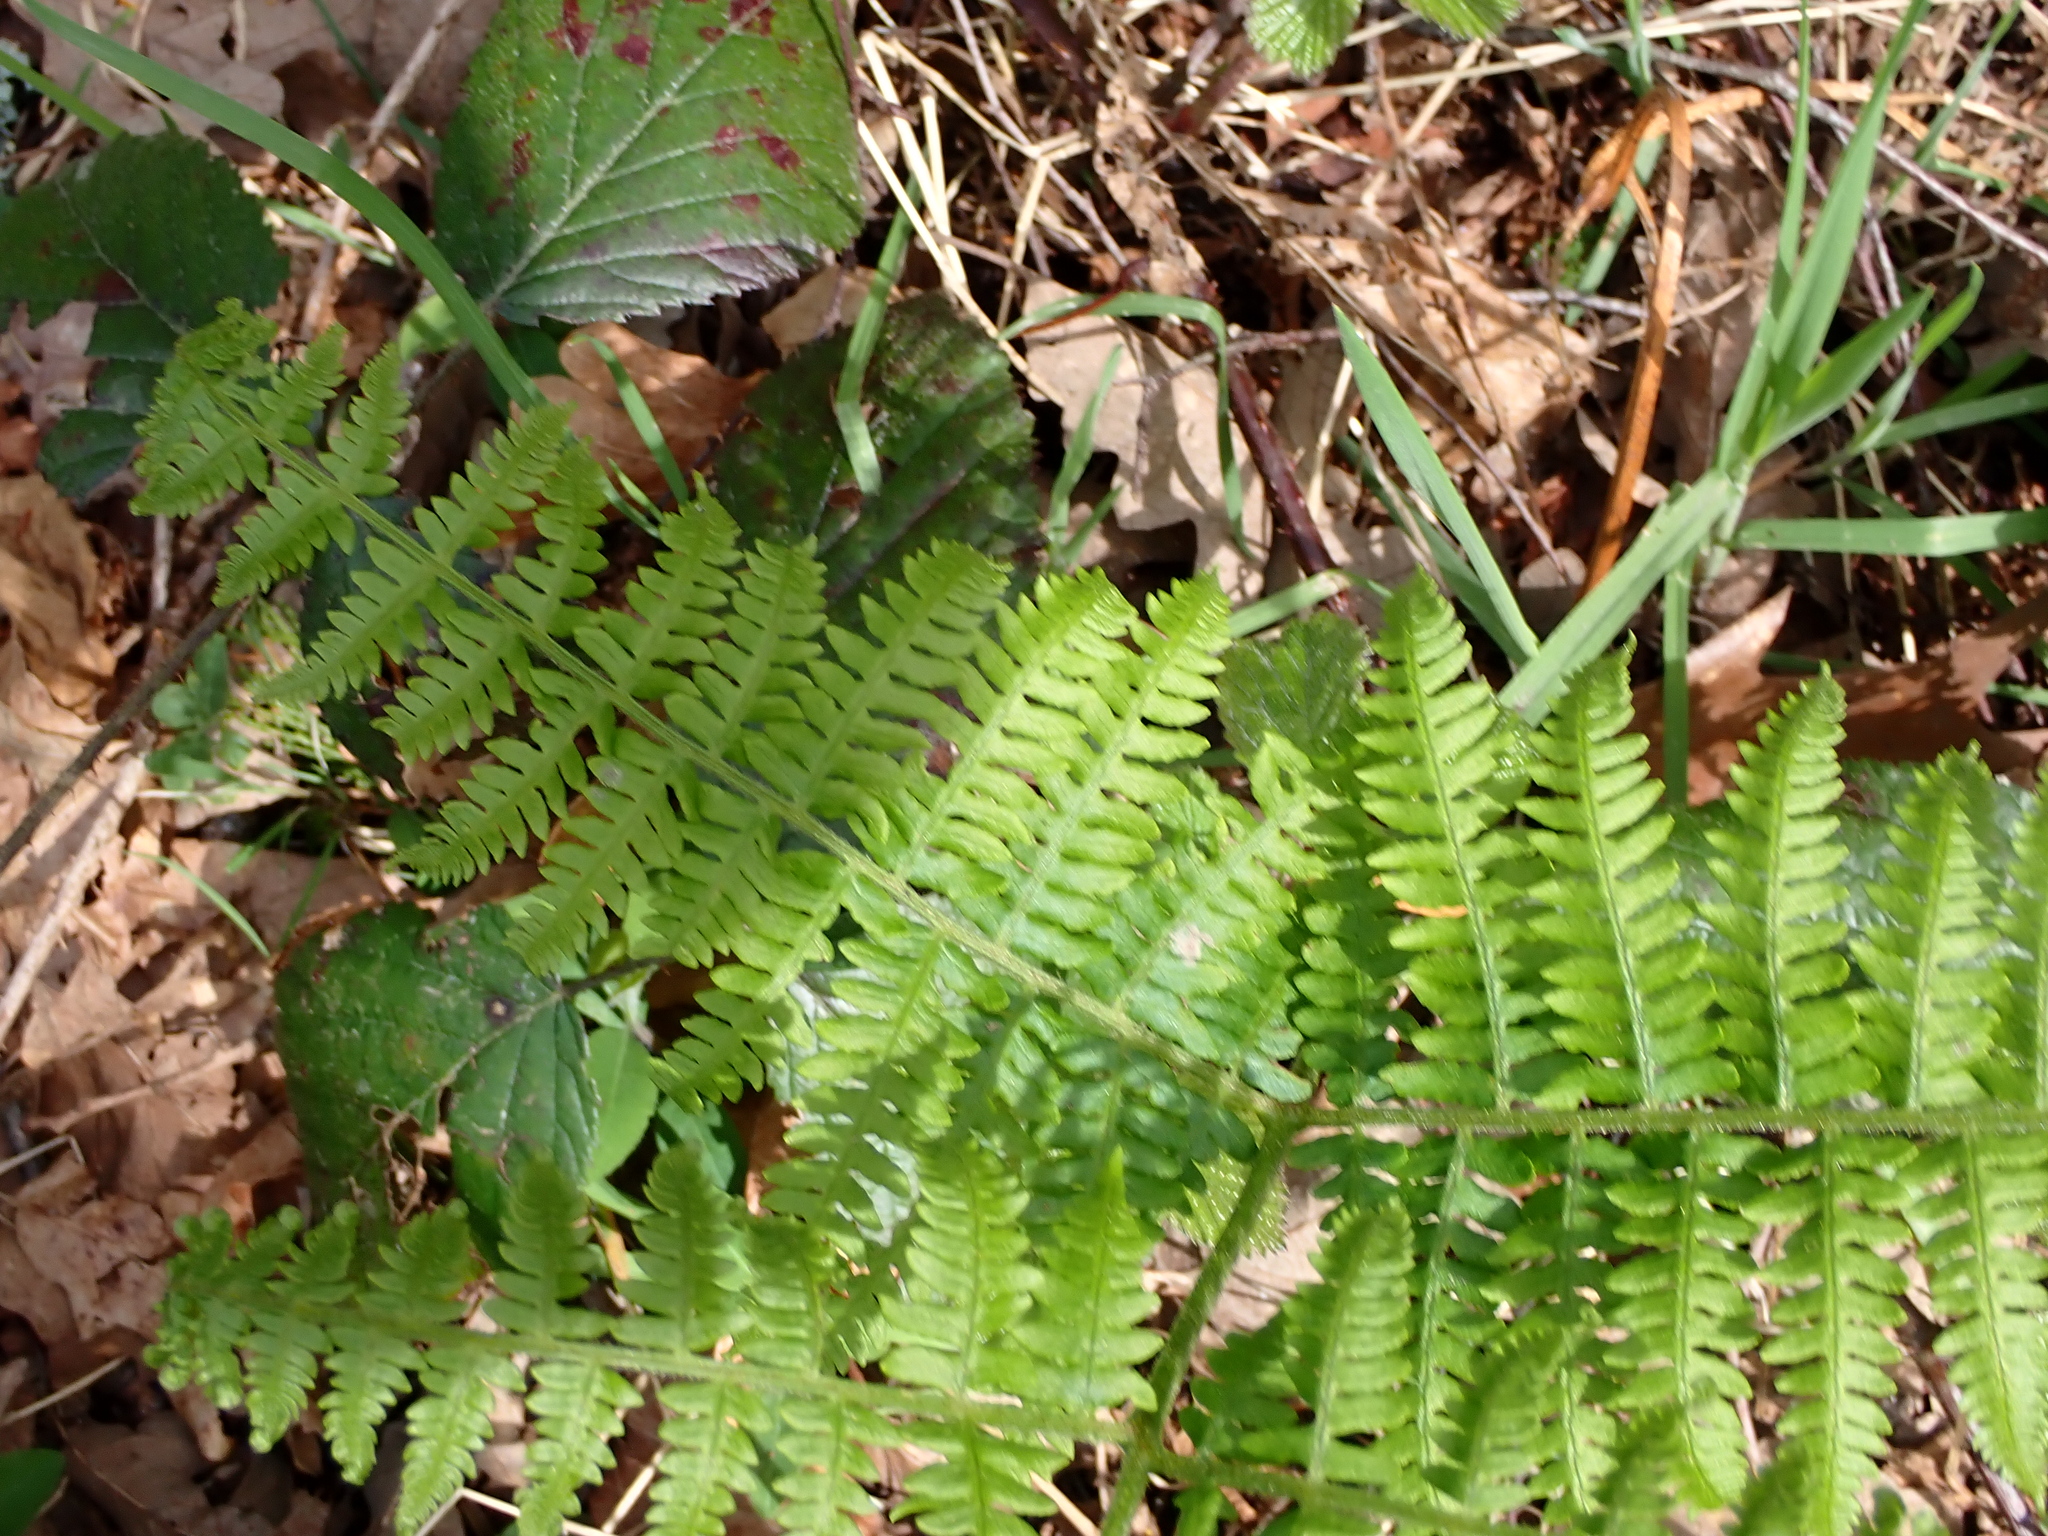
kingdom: Plantae
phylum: Tracheophyta
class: Polypodiopsida
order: Polypodiales
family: Dennstaedtiaceae
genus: Pteridium
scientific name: Pteridium aquilinum
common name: Bracken
